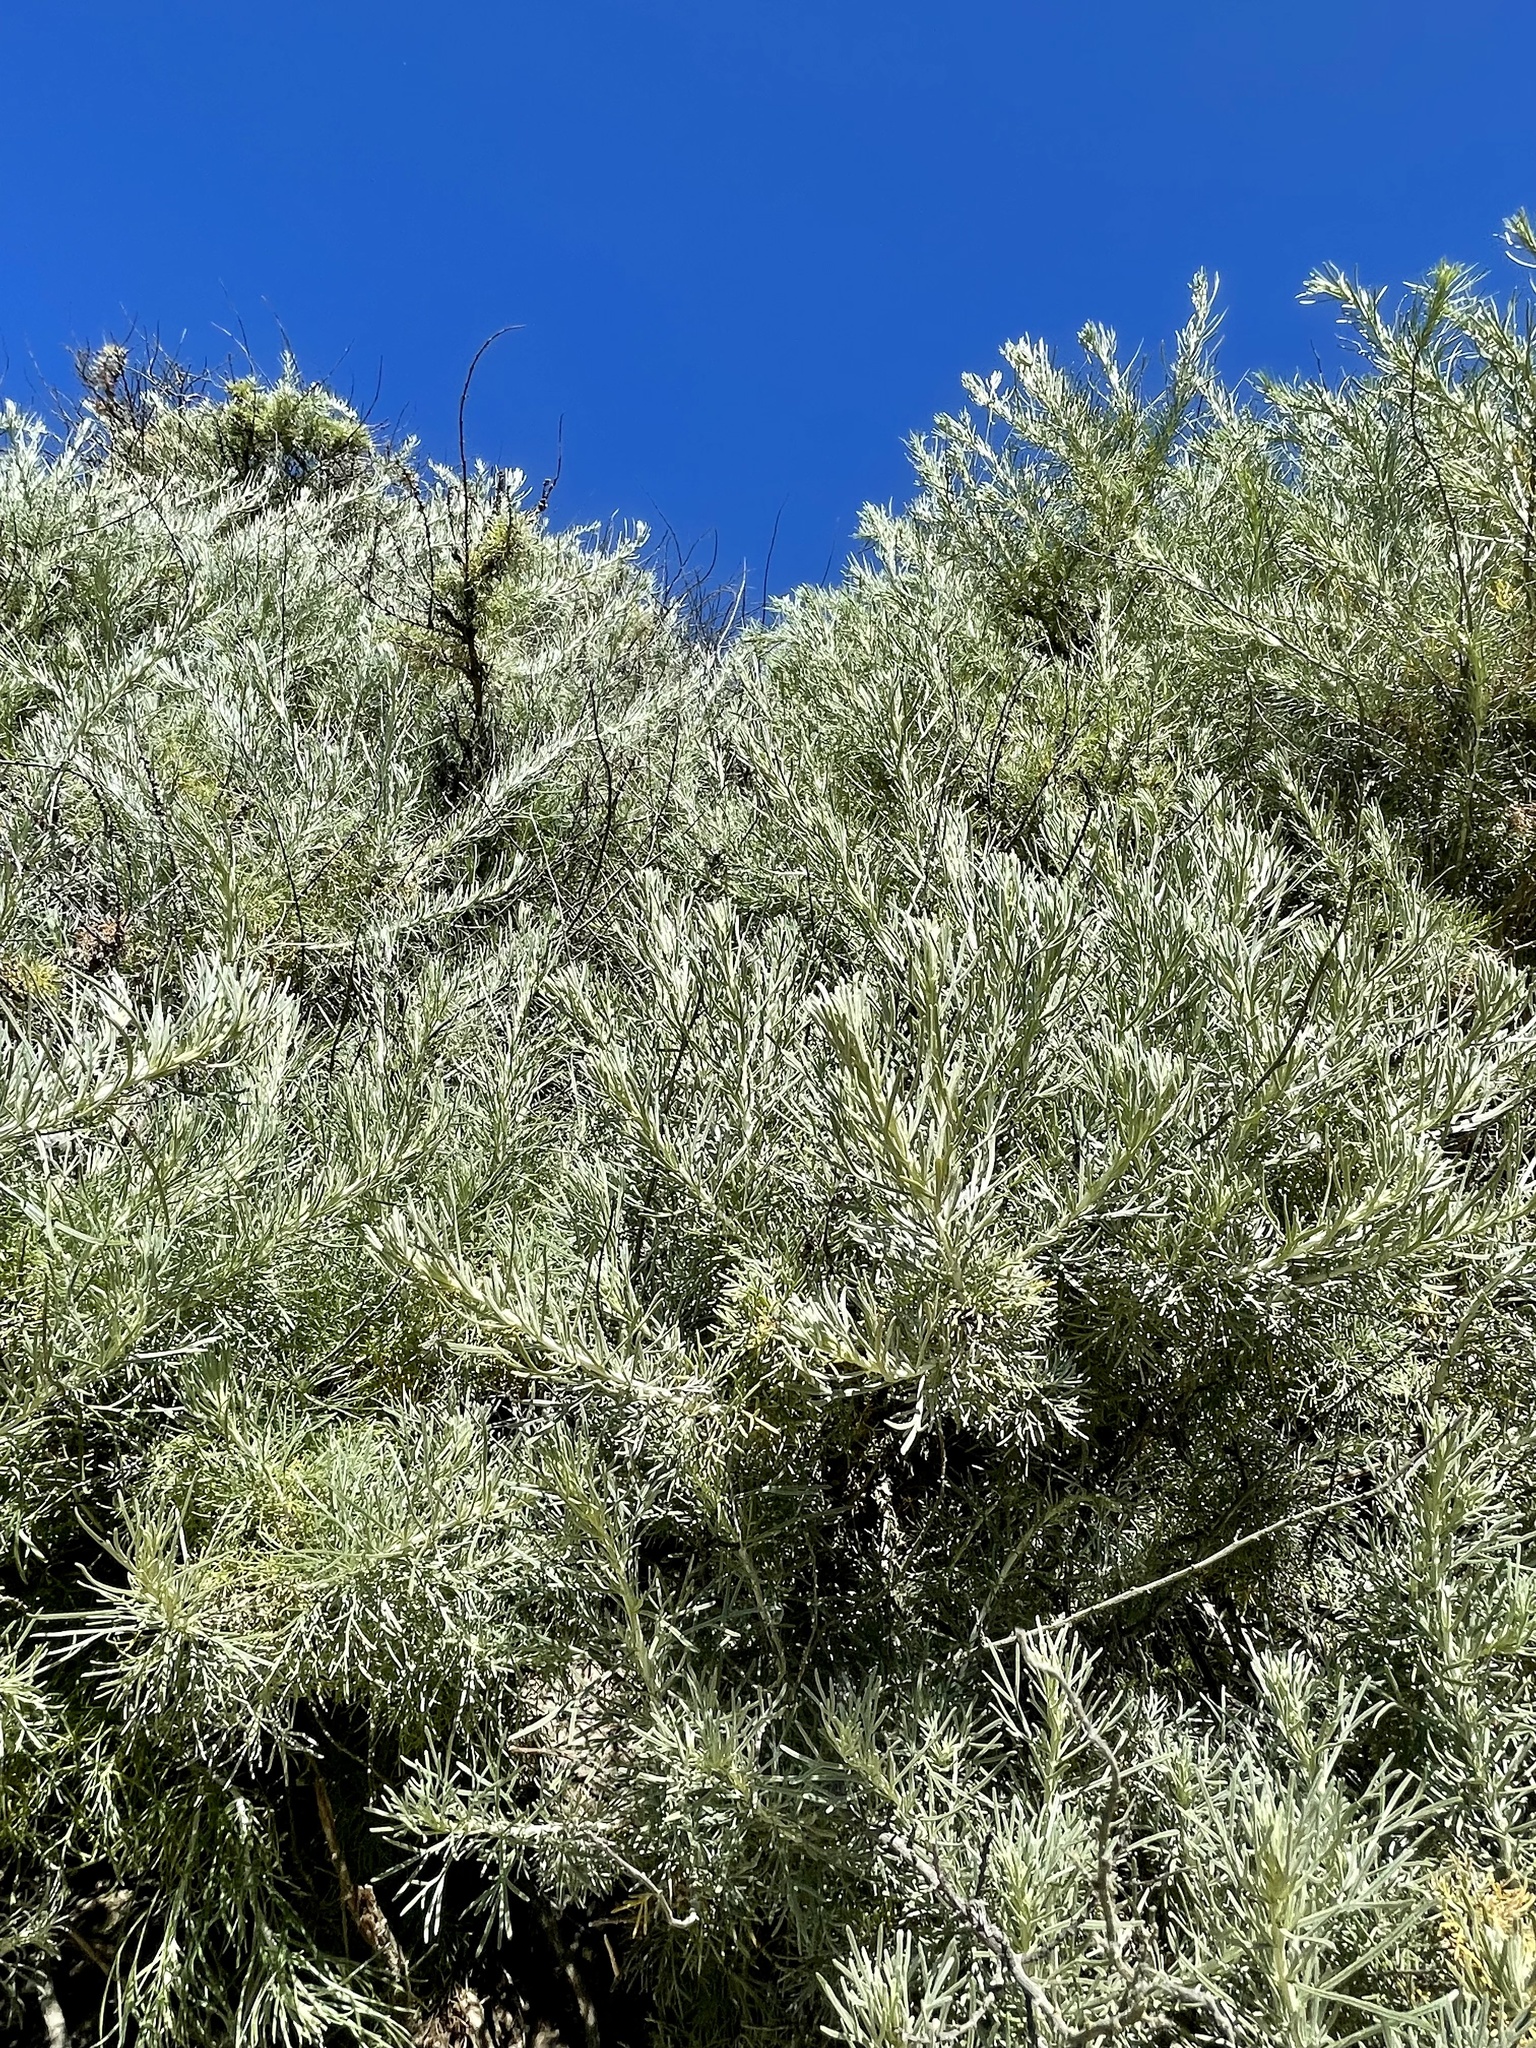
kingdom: Plantae
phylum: Tracheophyta
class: Magnoliopsida
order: Asterales
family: Asteraceae
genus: Artemisia
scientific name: Artemisia californica
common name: California sagebrush
